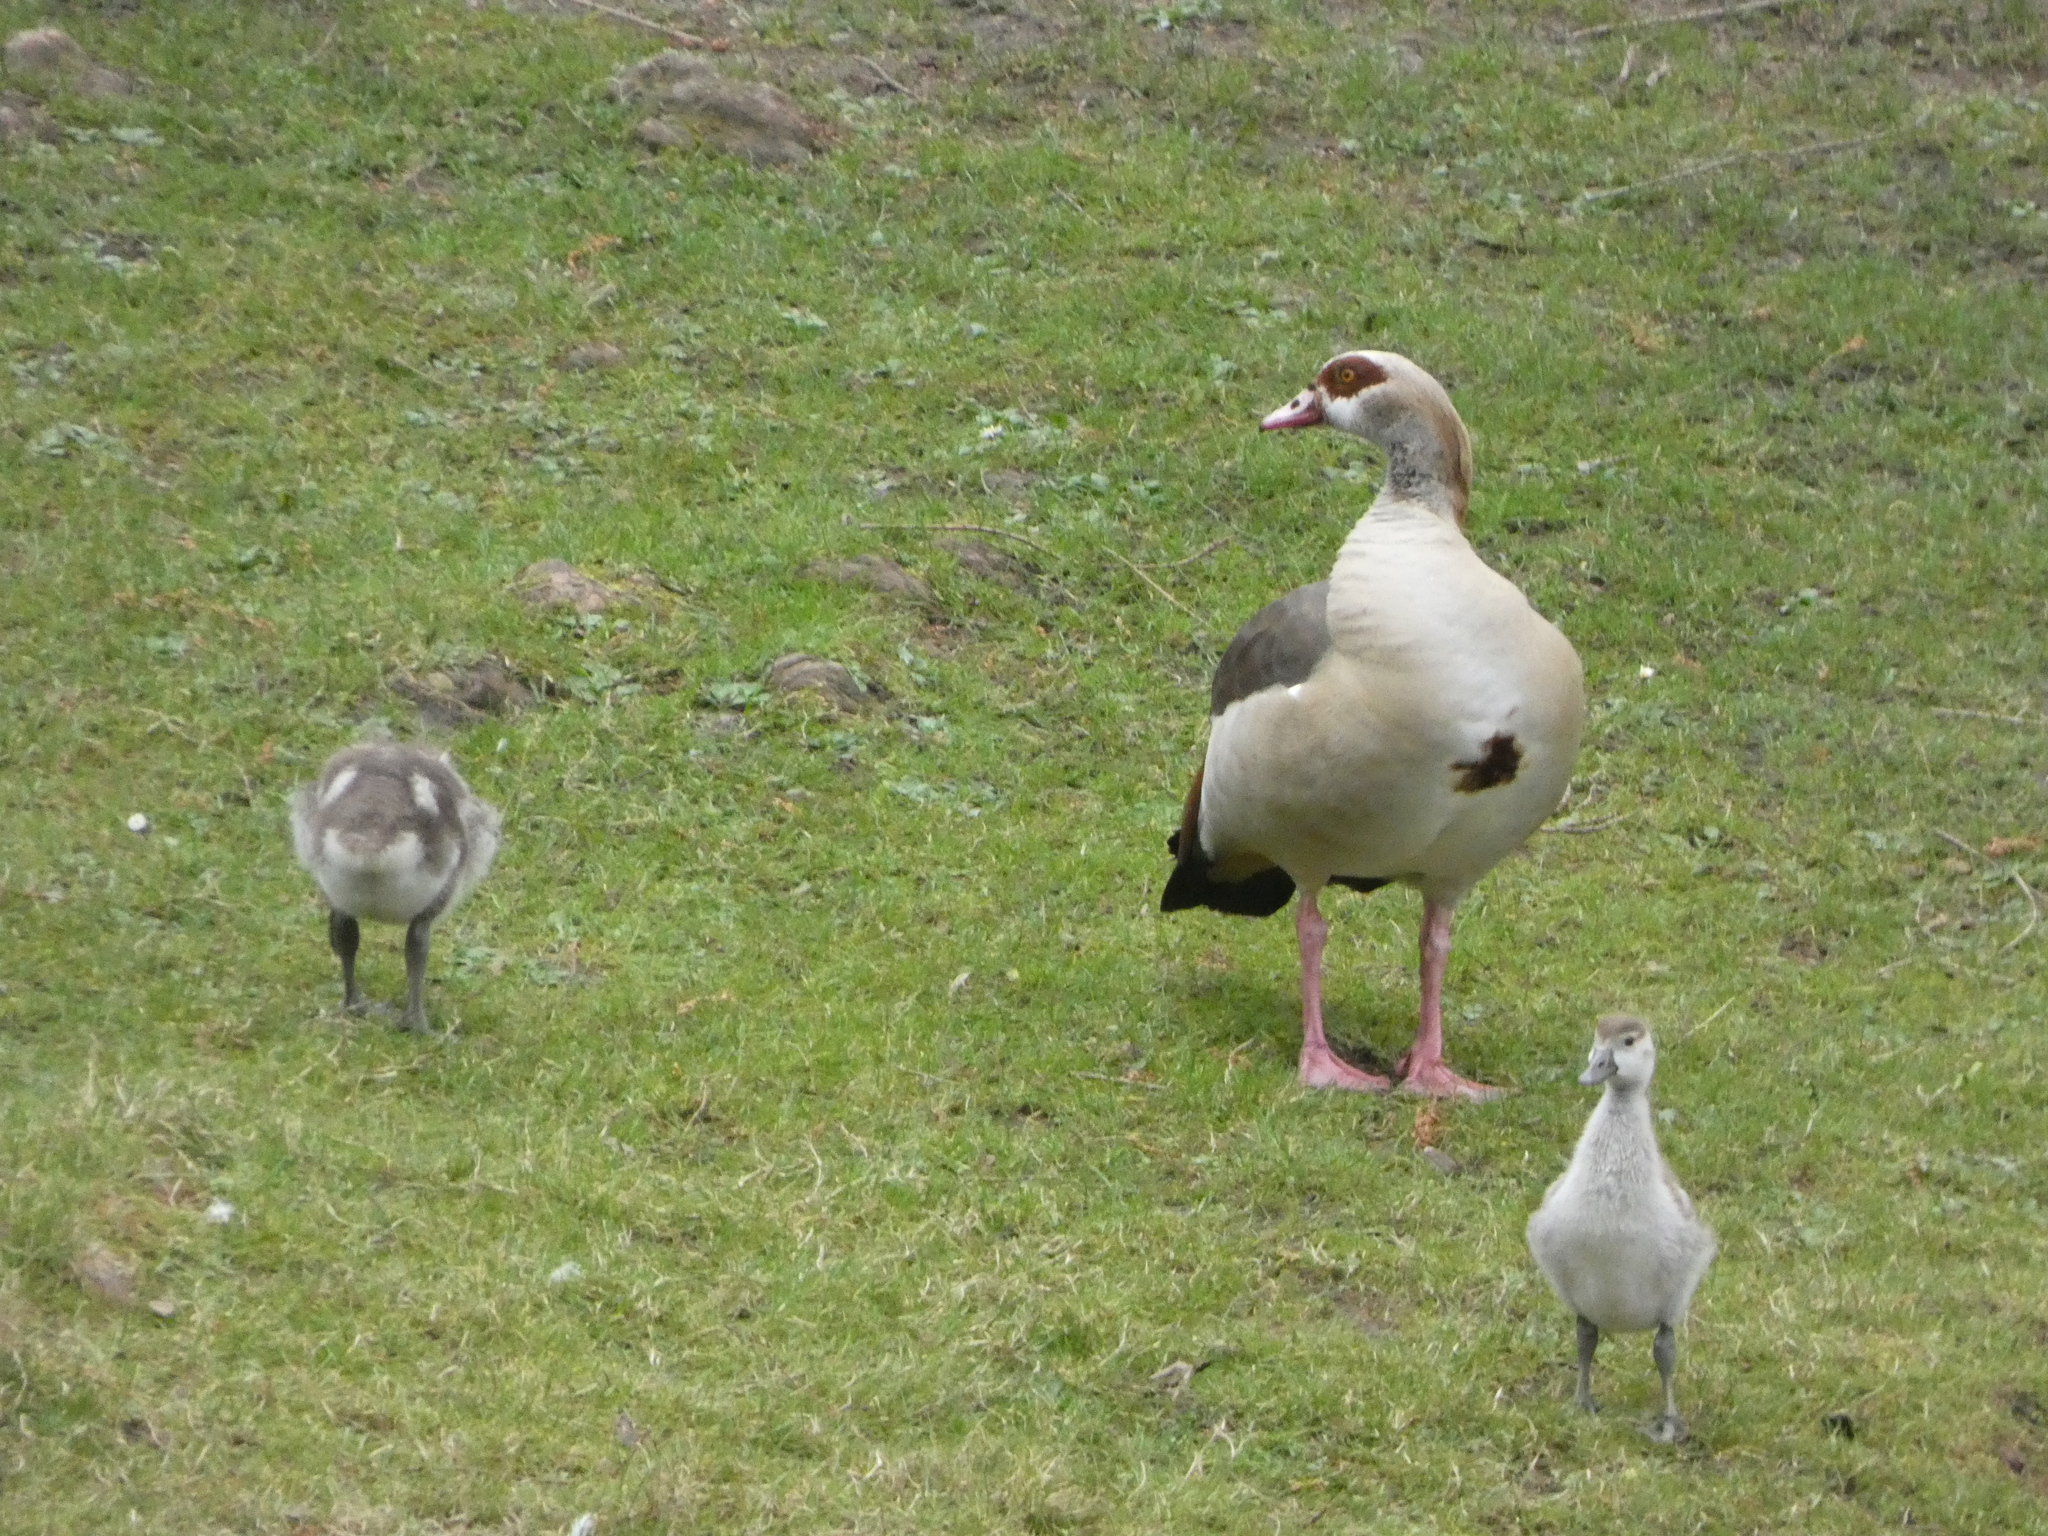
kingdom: Animalia
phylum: Chordata
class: Aves
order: Anseriformes
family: Anatidae
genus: Alopochen
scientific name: Alopochen aegyptiaca
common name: Egyptian goose
